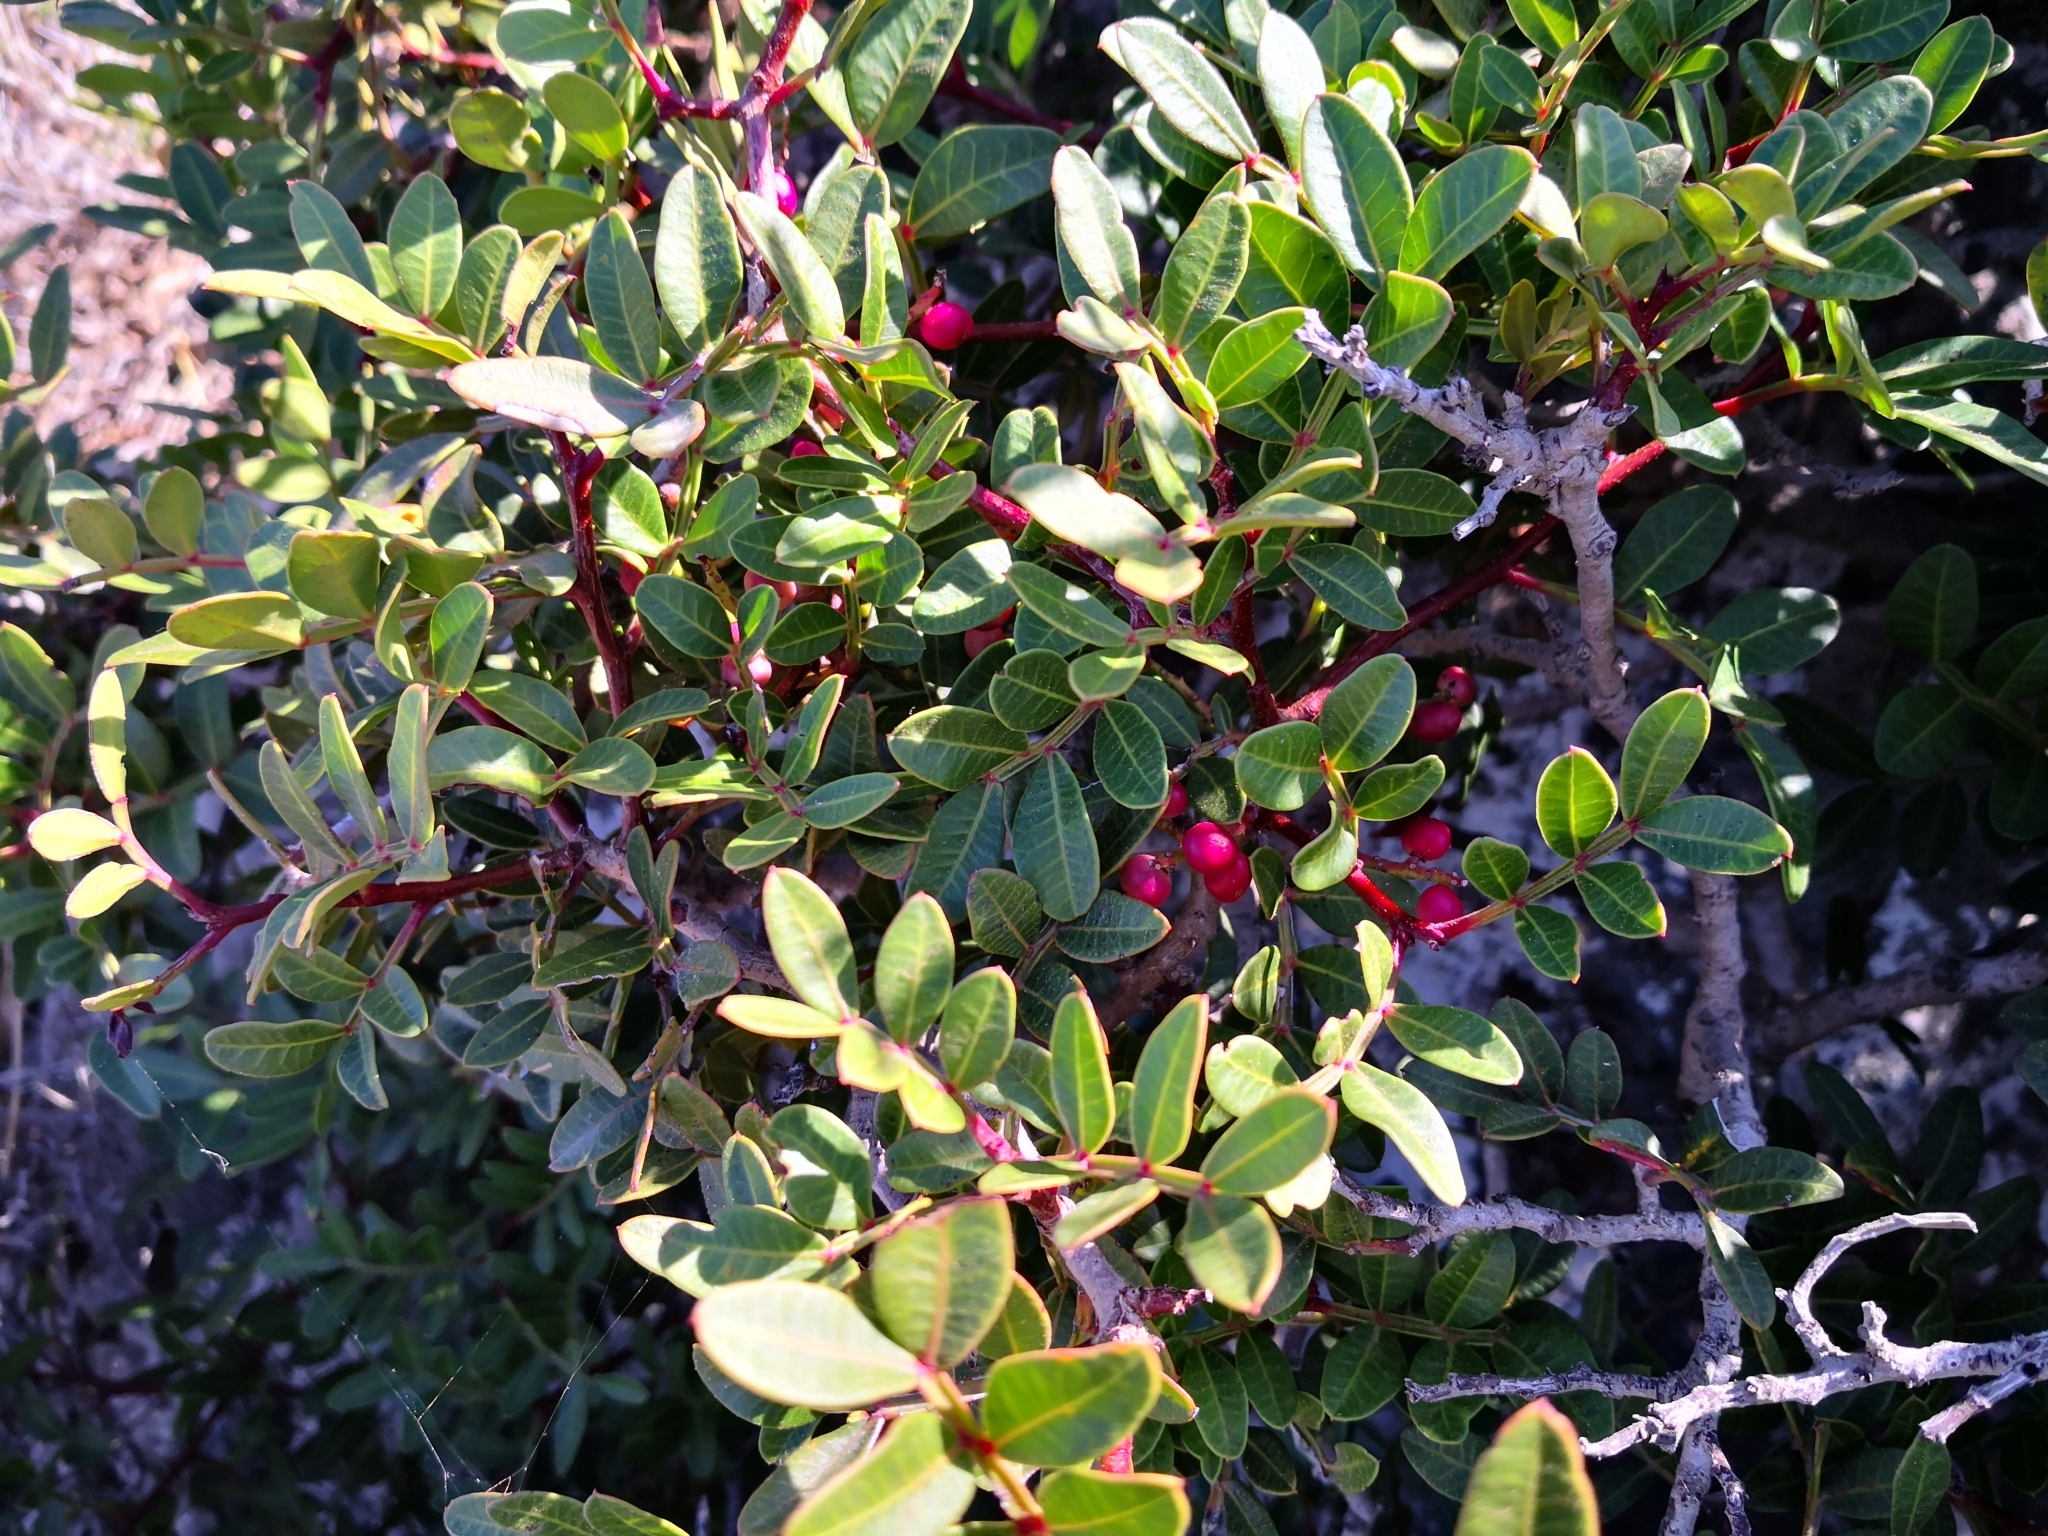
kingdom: Plantae
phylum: Tracheophyta
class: Magnoliopsida
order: Sapindales
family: Anacardiaceae
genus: Pistacia
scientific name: Pistacia lentiscus
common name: Lentisk
